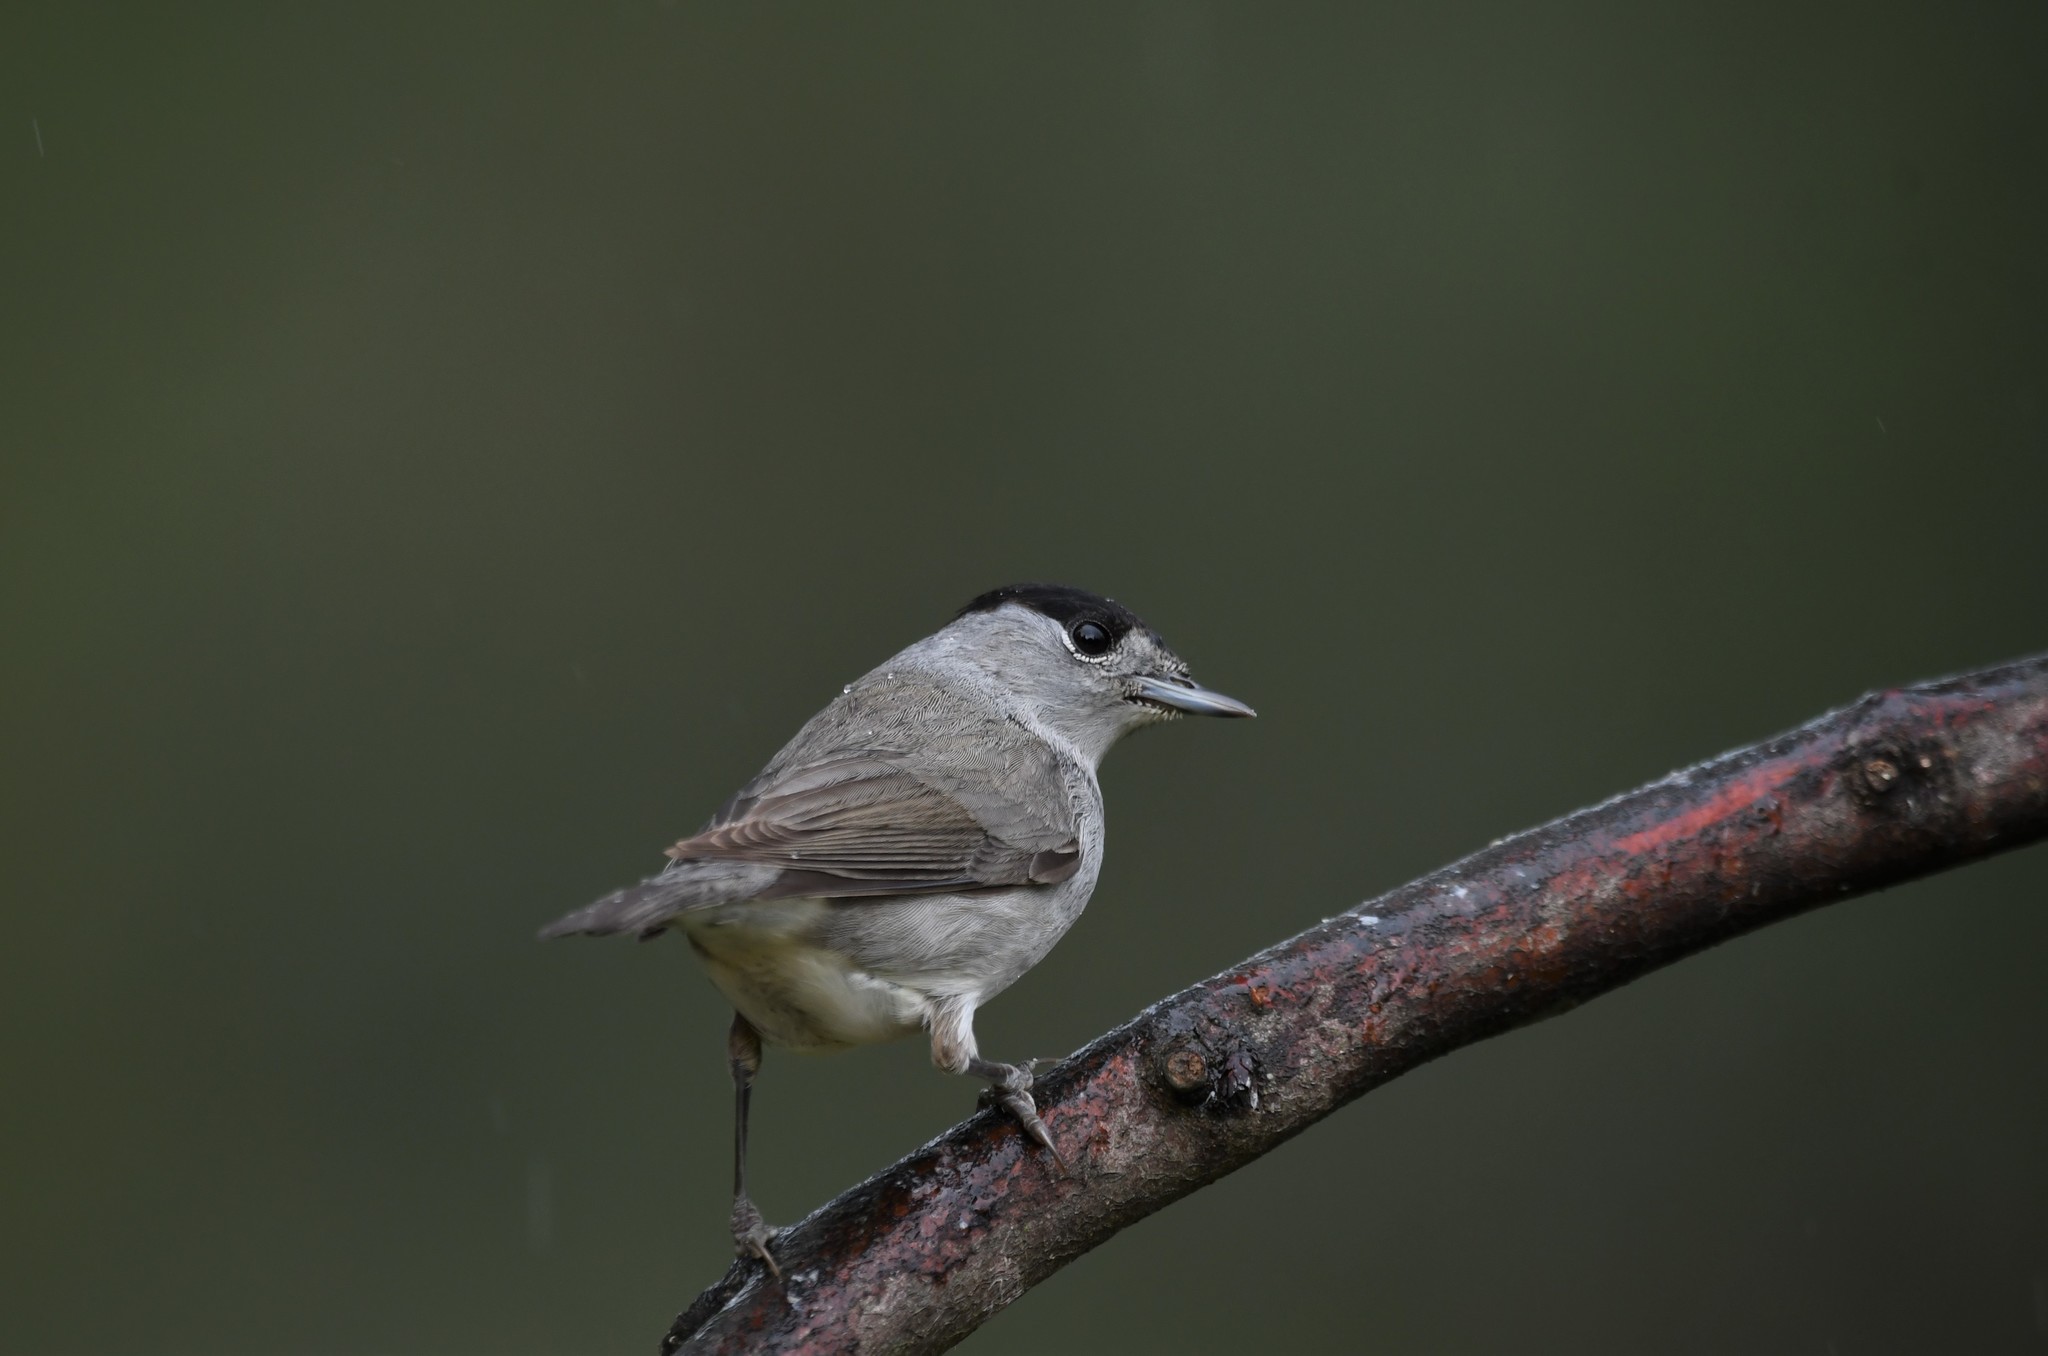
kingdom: Animalia
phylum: Chordata
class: Aves
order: Passeriformes
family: Sylviidae
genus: Sylvia
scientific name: Sylvia atricapilla
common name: Eurasian blackcap
